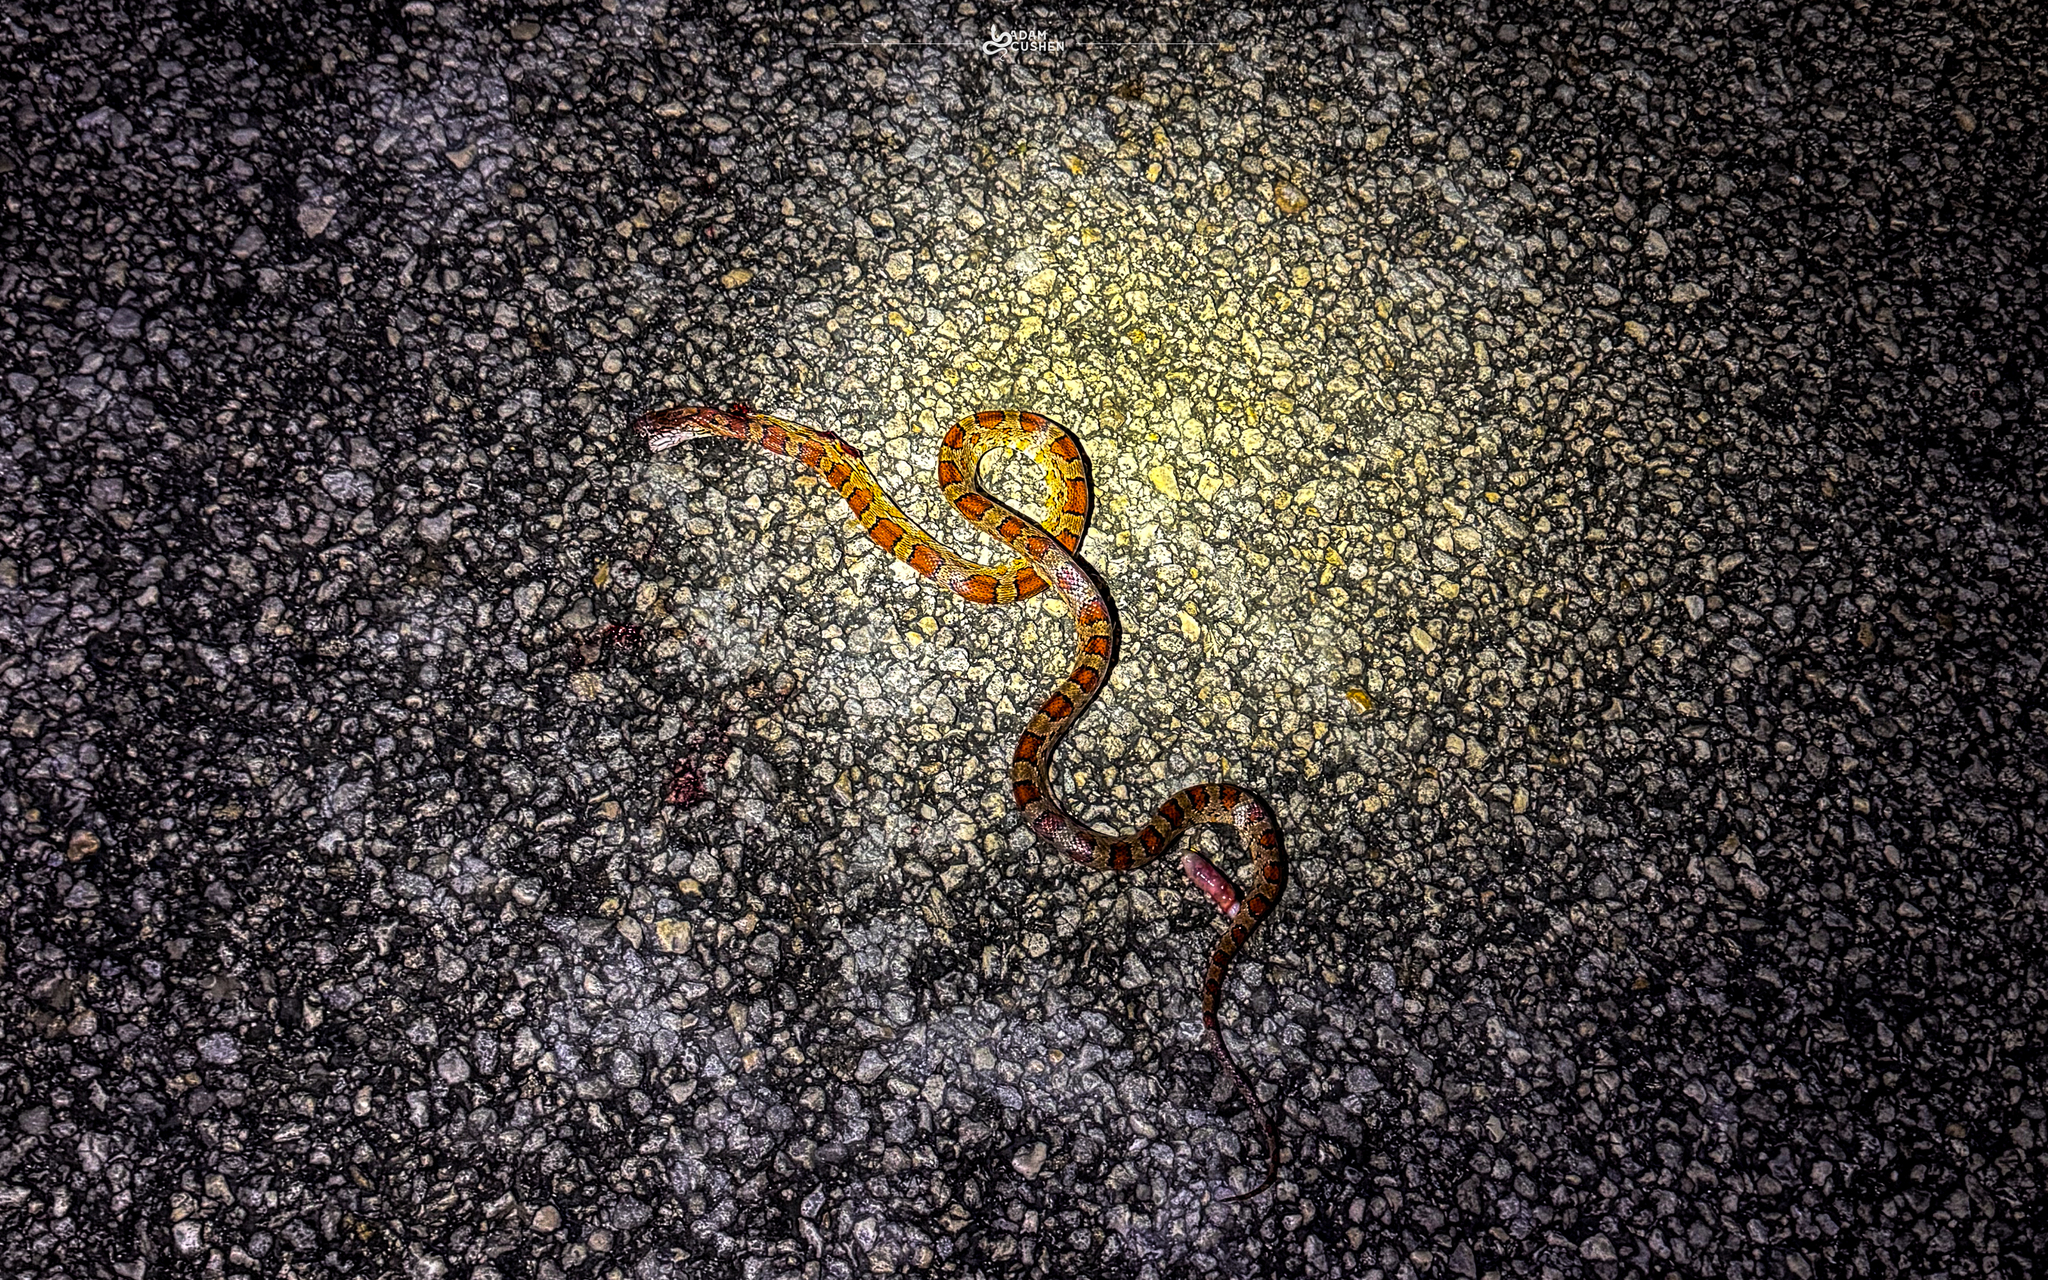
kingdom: Animalia
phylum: Chordata
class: Squamata
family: Colubridae
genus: Pantherophis
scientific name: Pantherophis guttatus
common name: Red cornsnake
